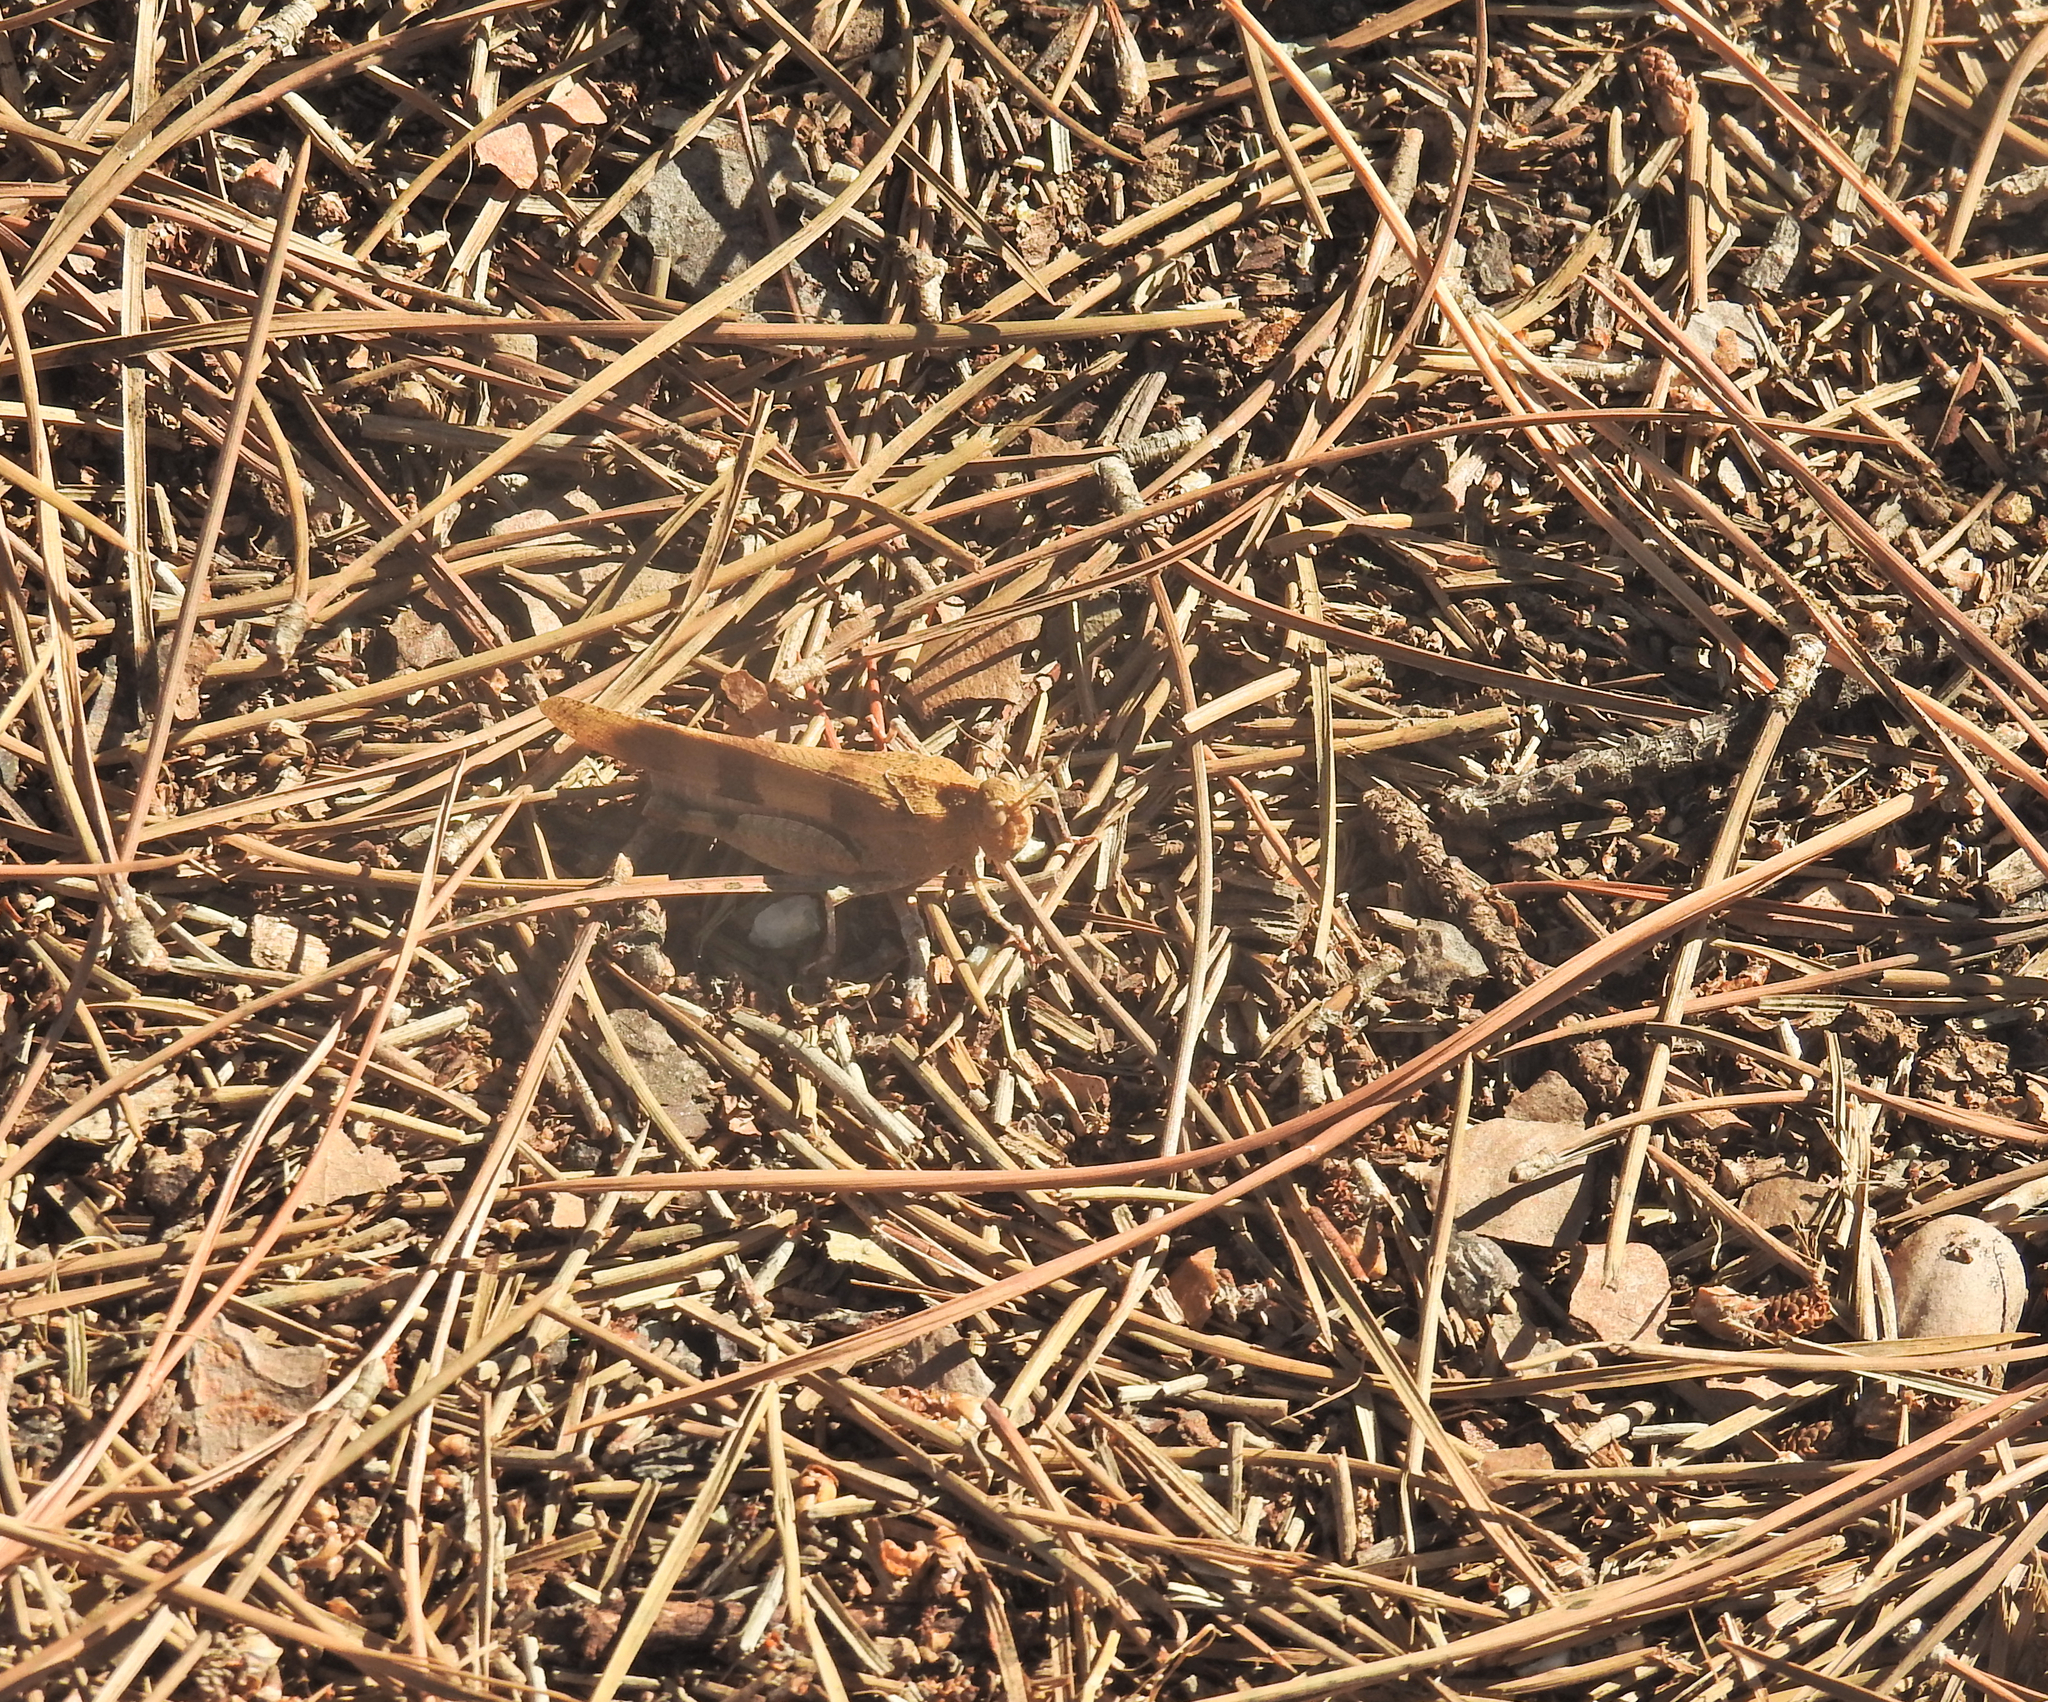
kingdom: Animalia
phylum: Arthropoda
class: Insecta
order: Orthoptera
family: Acrididae
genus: Oedipoda
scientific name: Oedipoda caerulescens
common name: Blue-winged grasshopper
